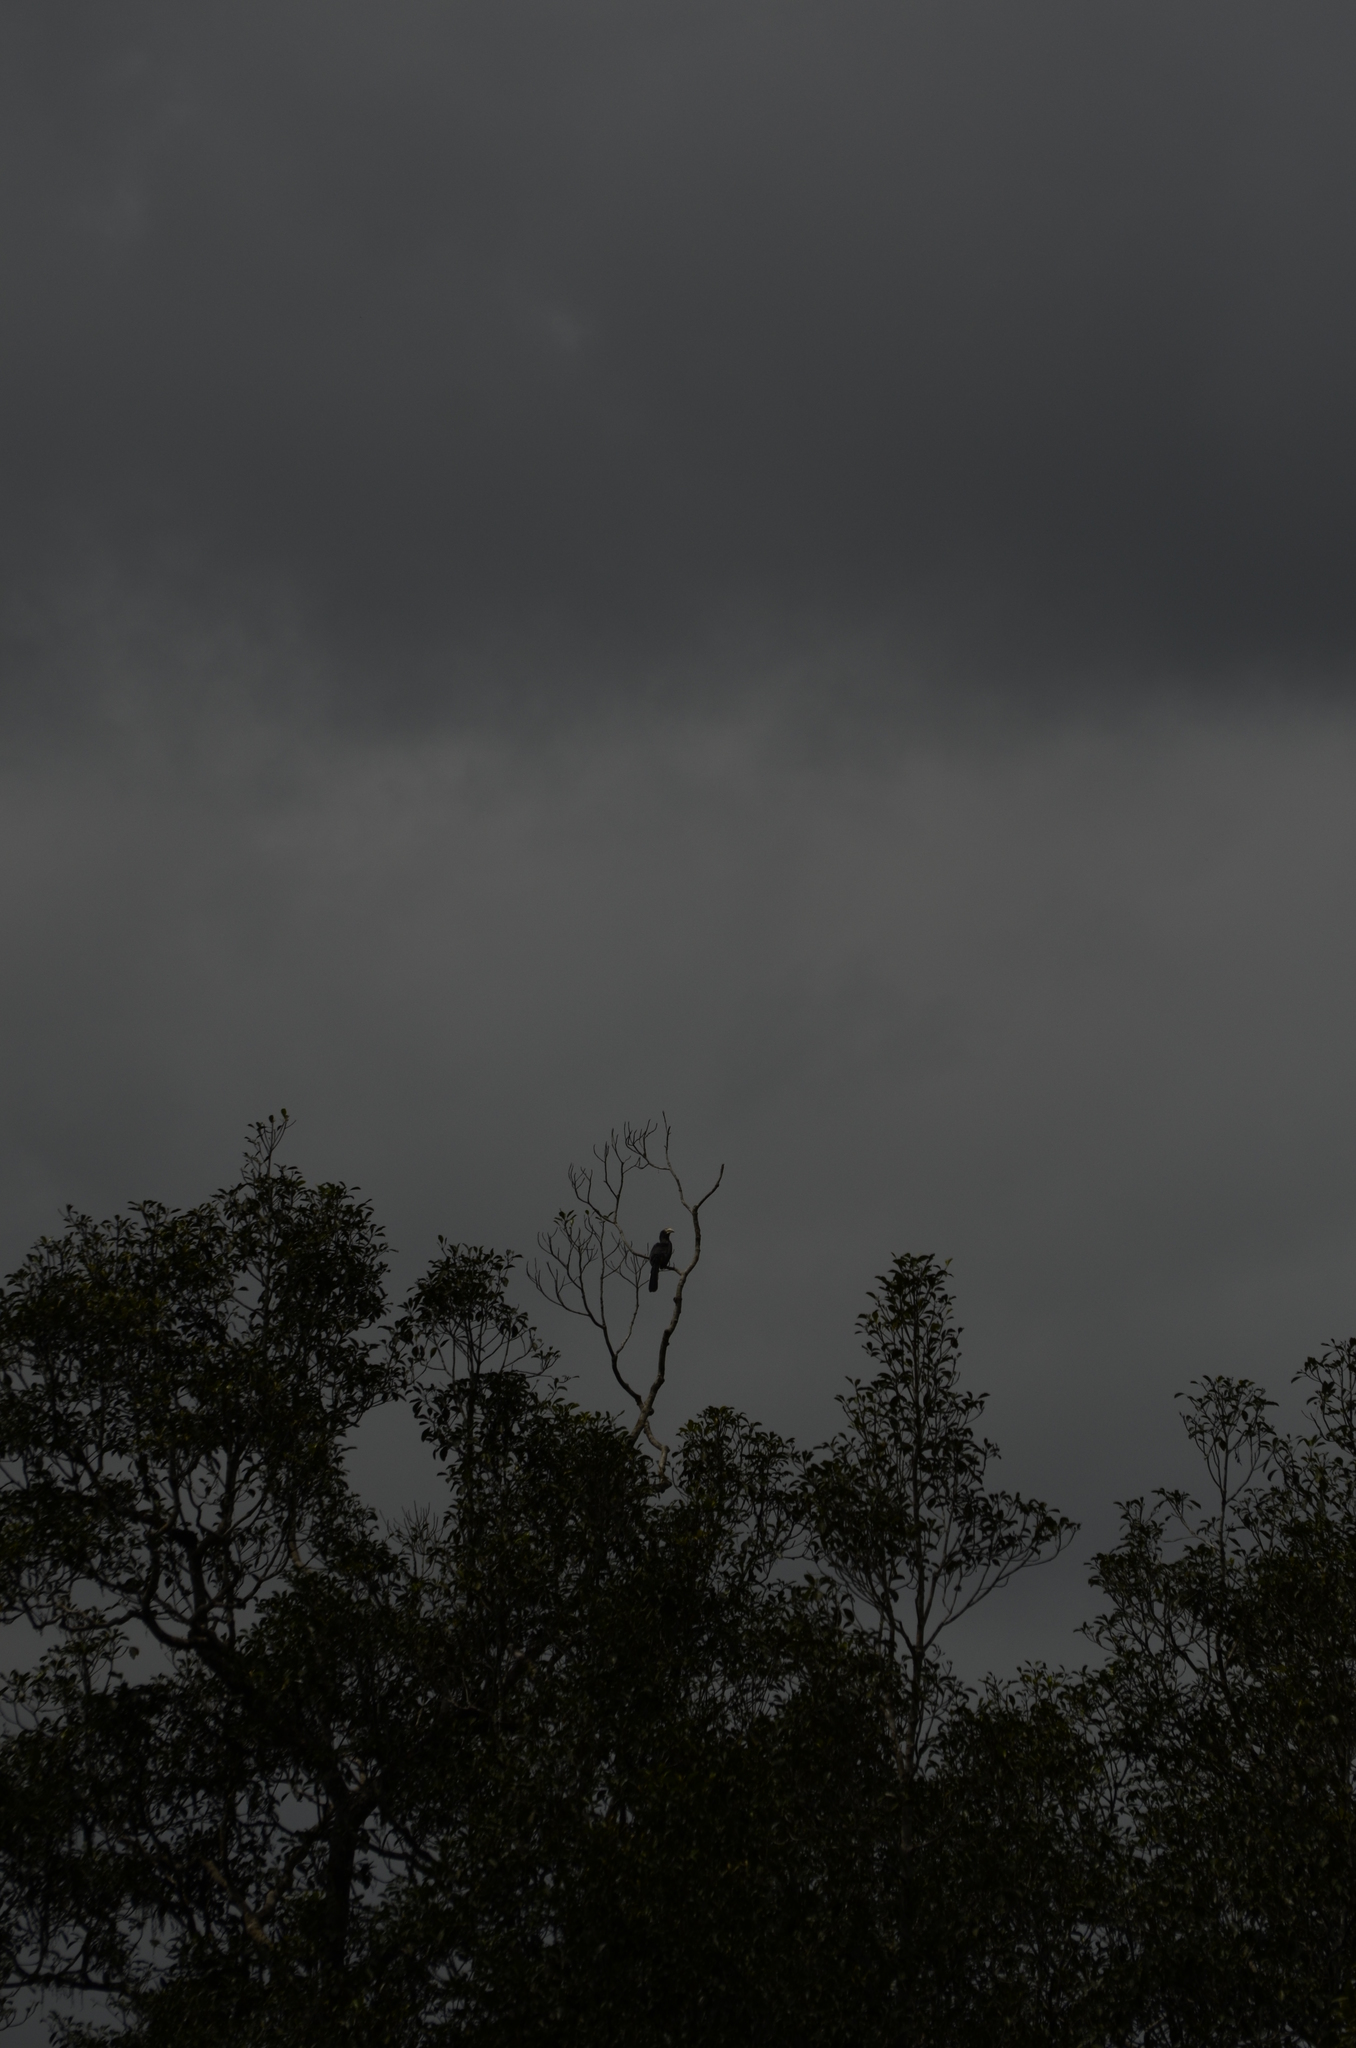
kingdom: Animalia
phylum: Chordata
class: Aves
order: Bucerotiformes
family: Bucerotidae
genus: Ocyceros
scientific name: Ocyceros griseus
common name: Malabar grey hornbill
